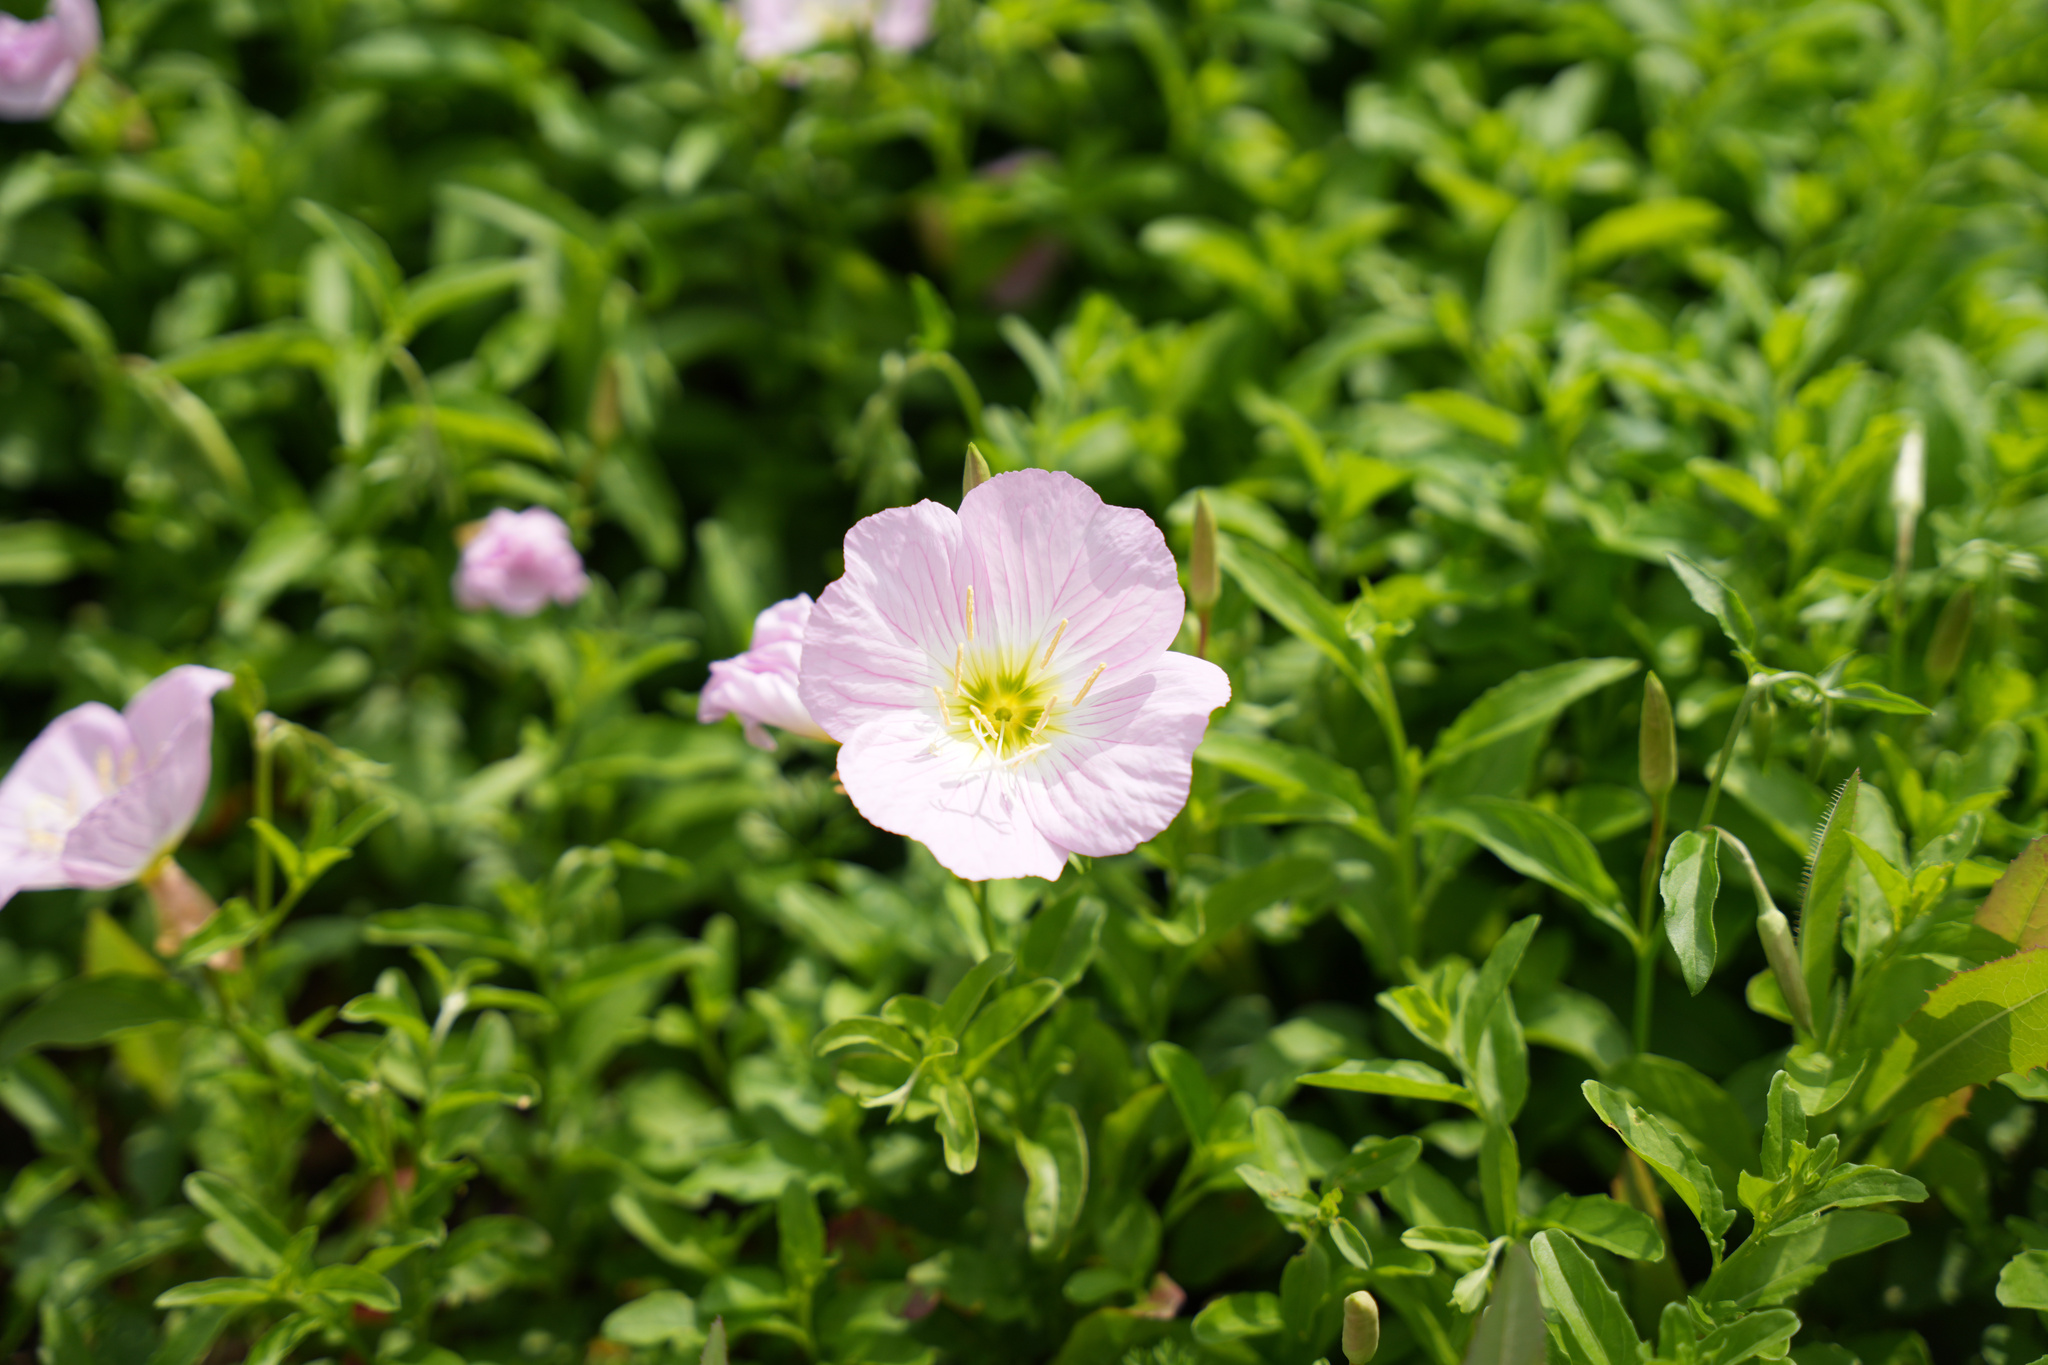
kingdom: Plantae
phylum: Tracheophyta
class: Magnoliopsida
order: Myrtales
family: Onagraceae
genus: Oenothera
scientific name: Oenothera speciosa
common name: White evening-primrose
